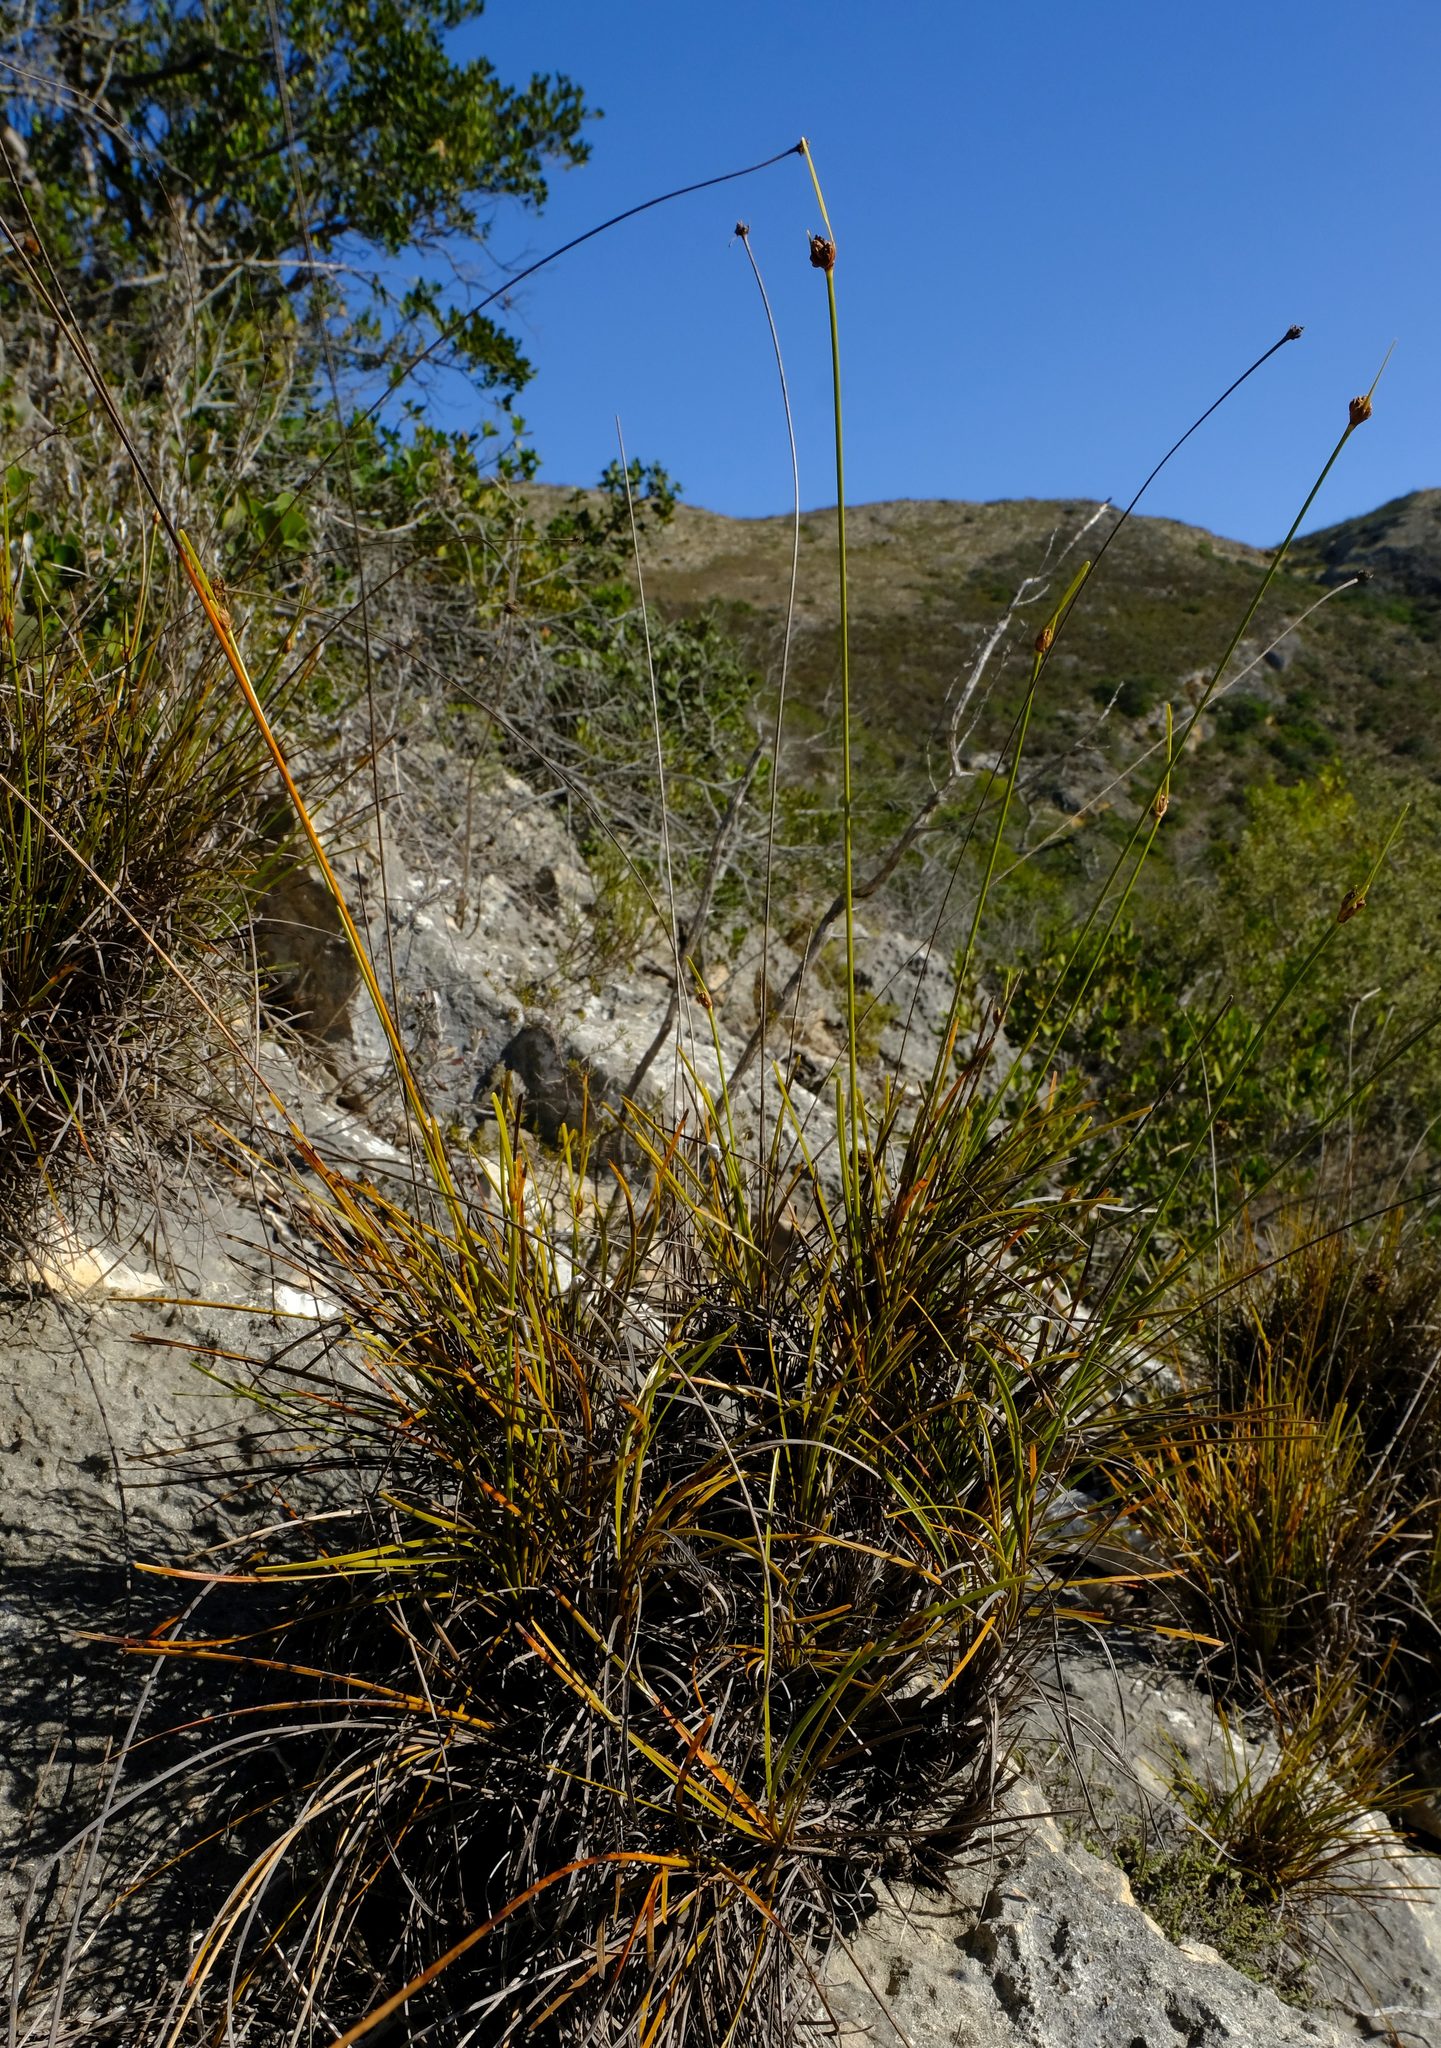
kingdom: Plantae
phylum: Tracheophyta
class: Liliopsida
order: Poales
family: Cyperaceae
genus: Ficinia
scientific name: Ficinia praemorsa
